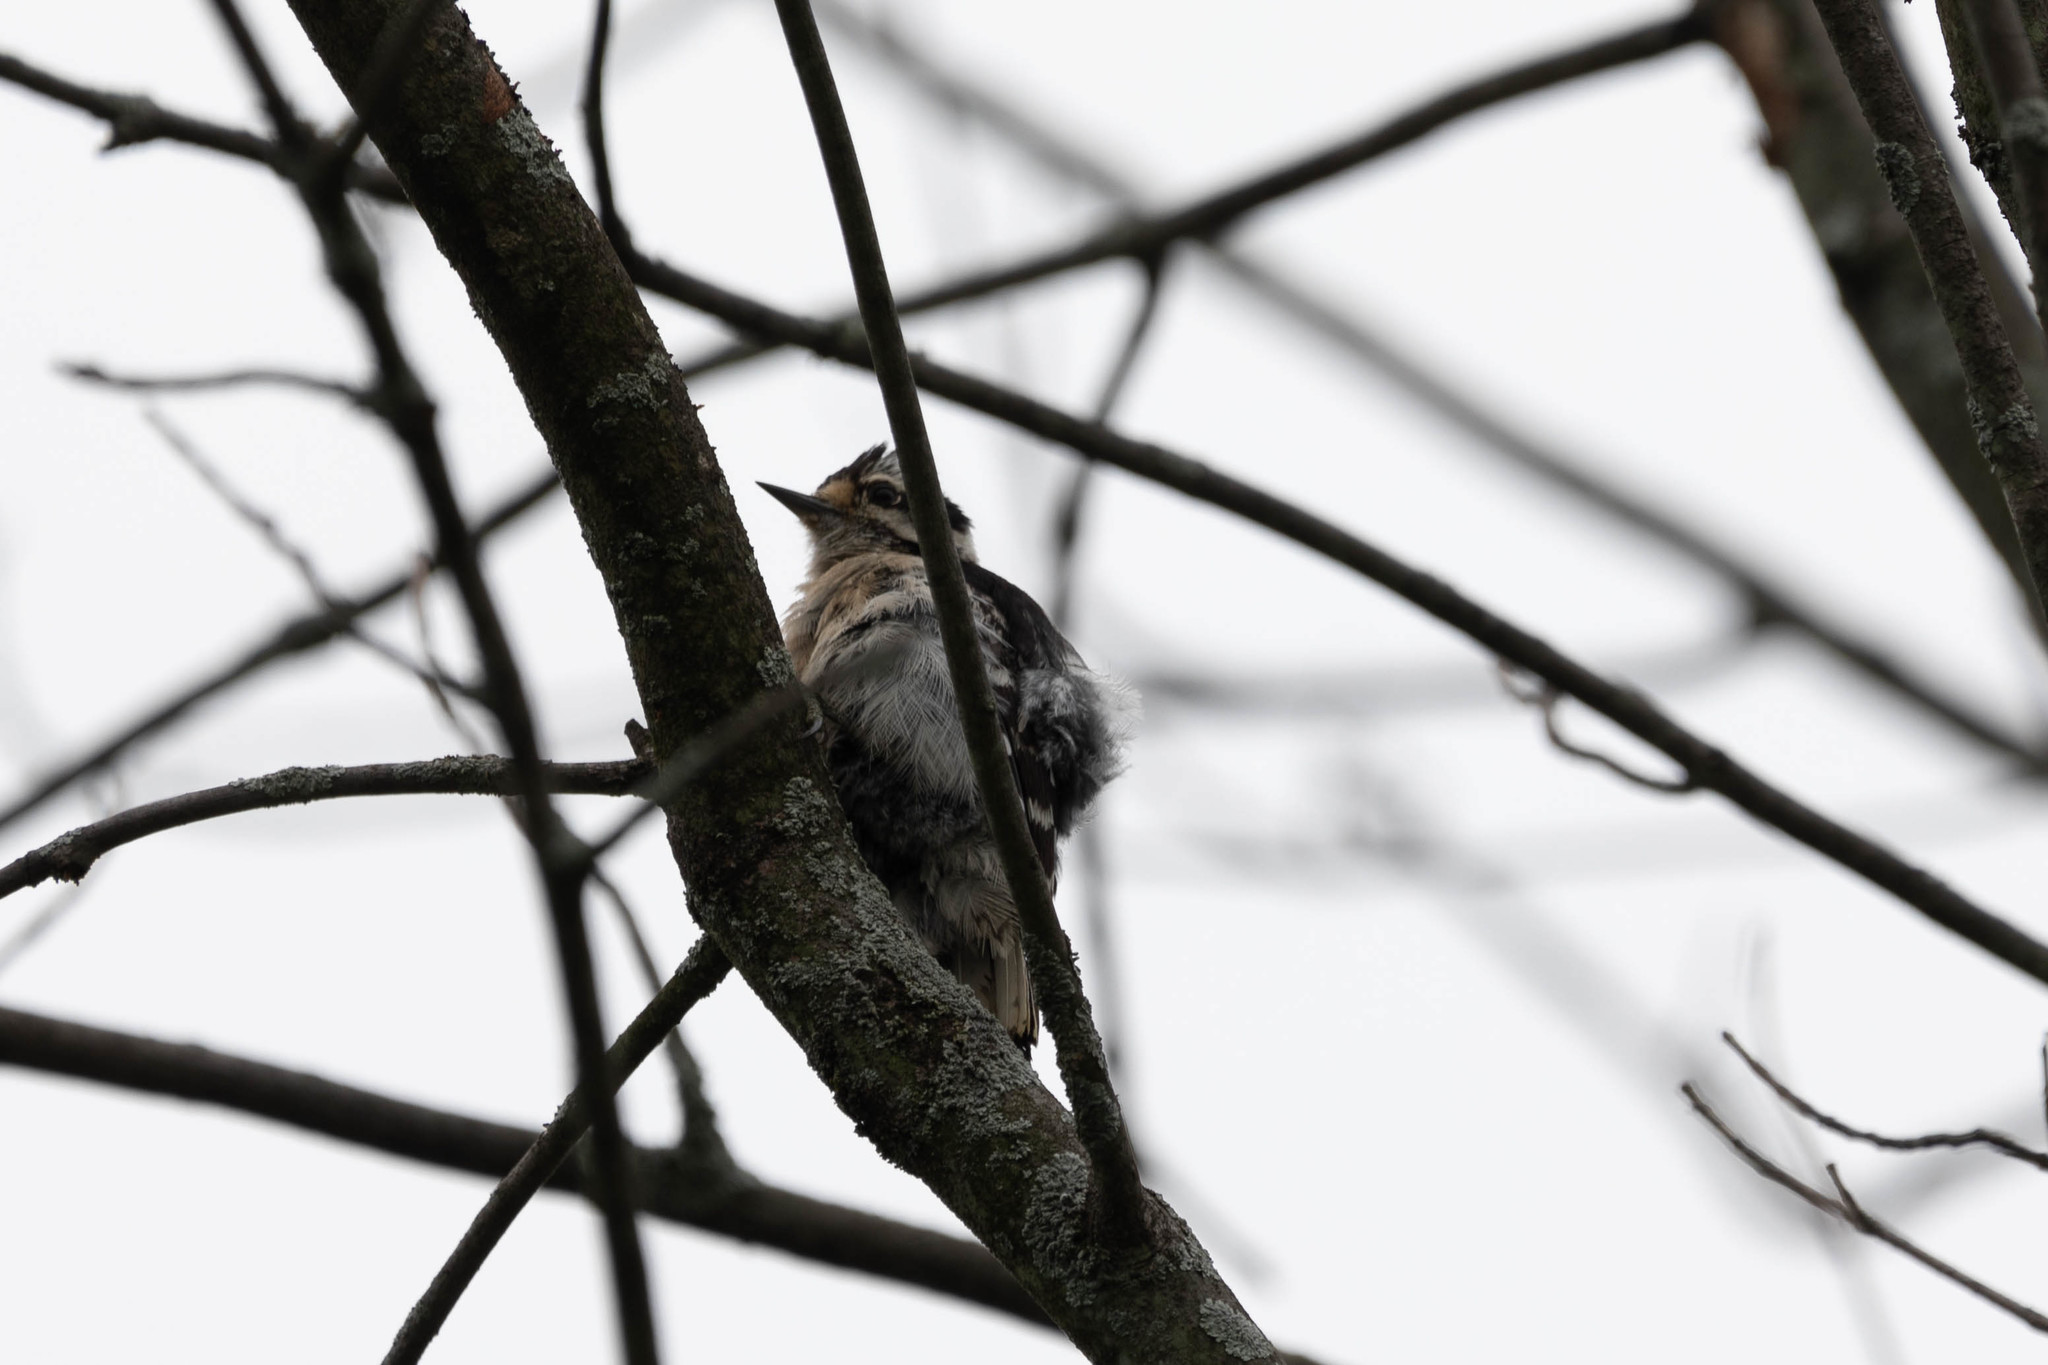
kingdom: Animalia
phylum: Chordata
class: Aves
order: Piciformes
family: Picidae
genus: Dryobates
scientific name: Dryobates pubescens
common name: Downy woodpecker
